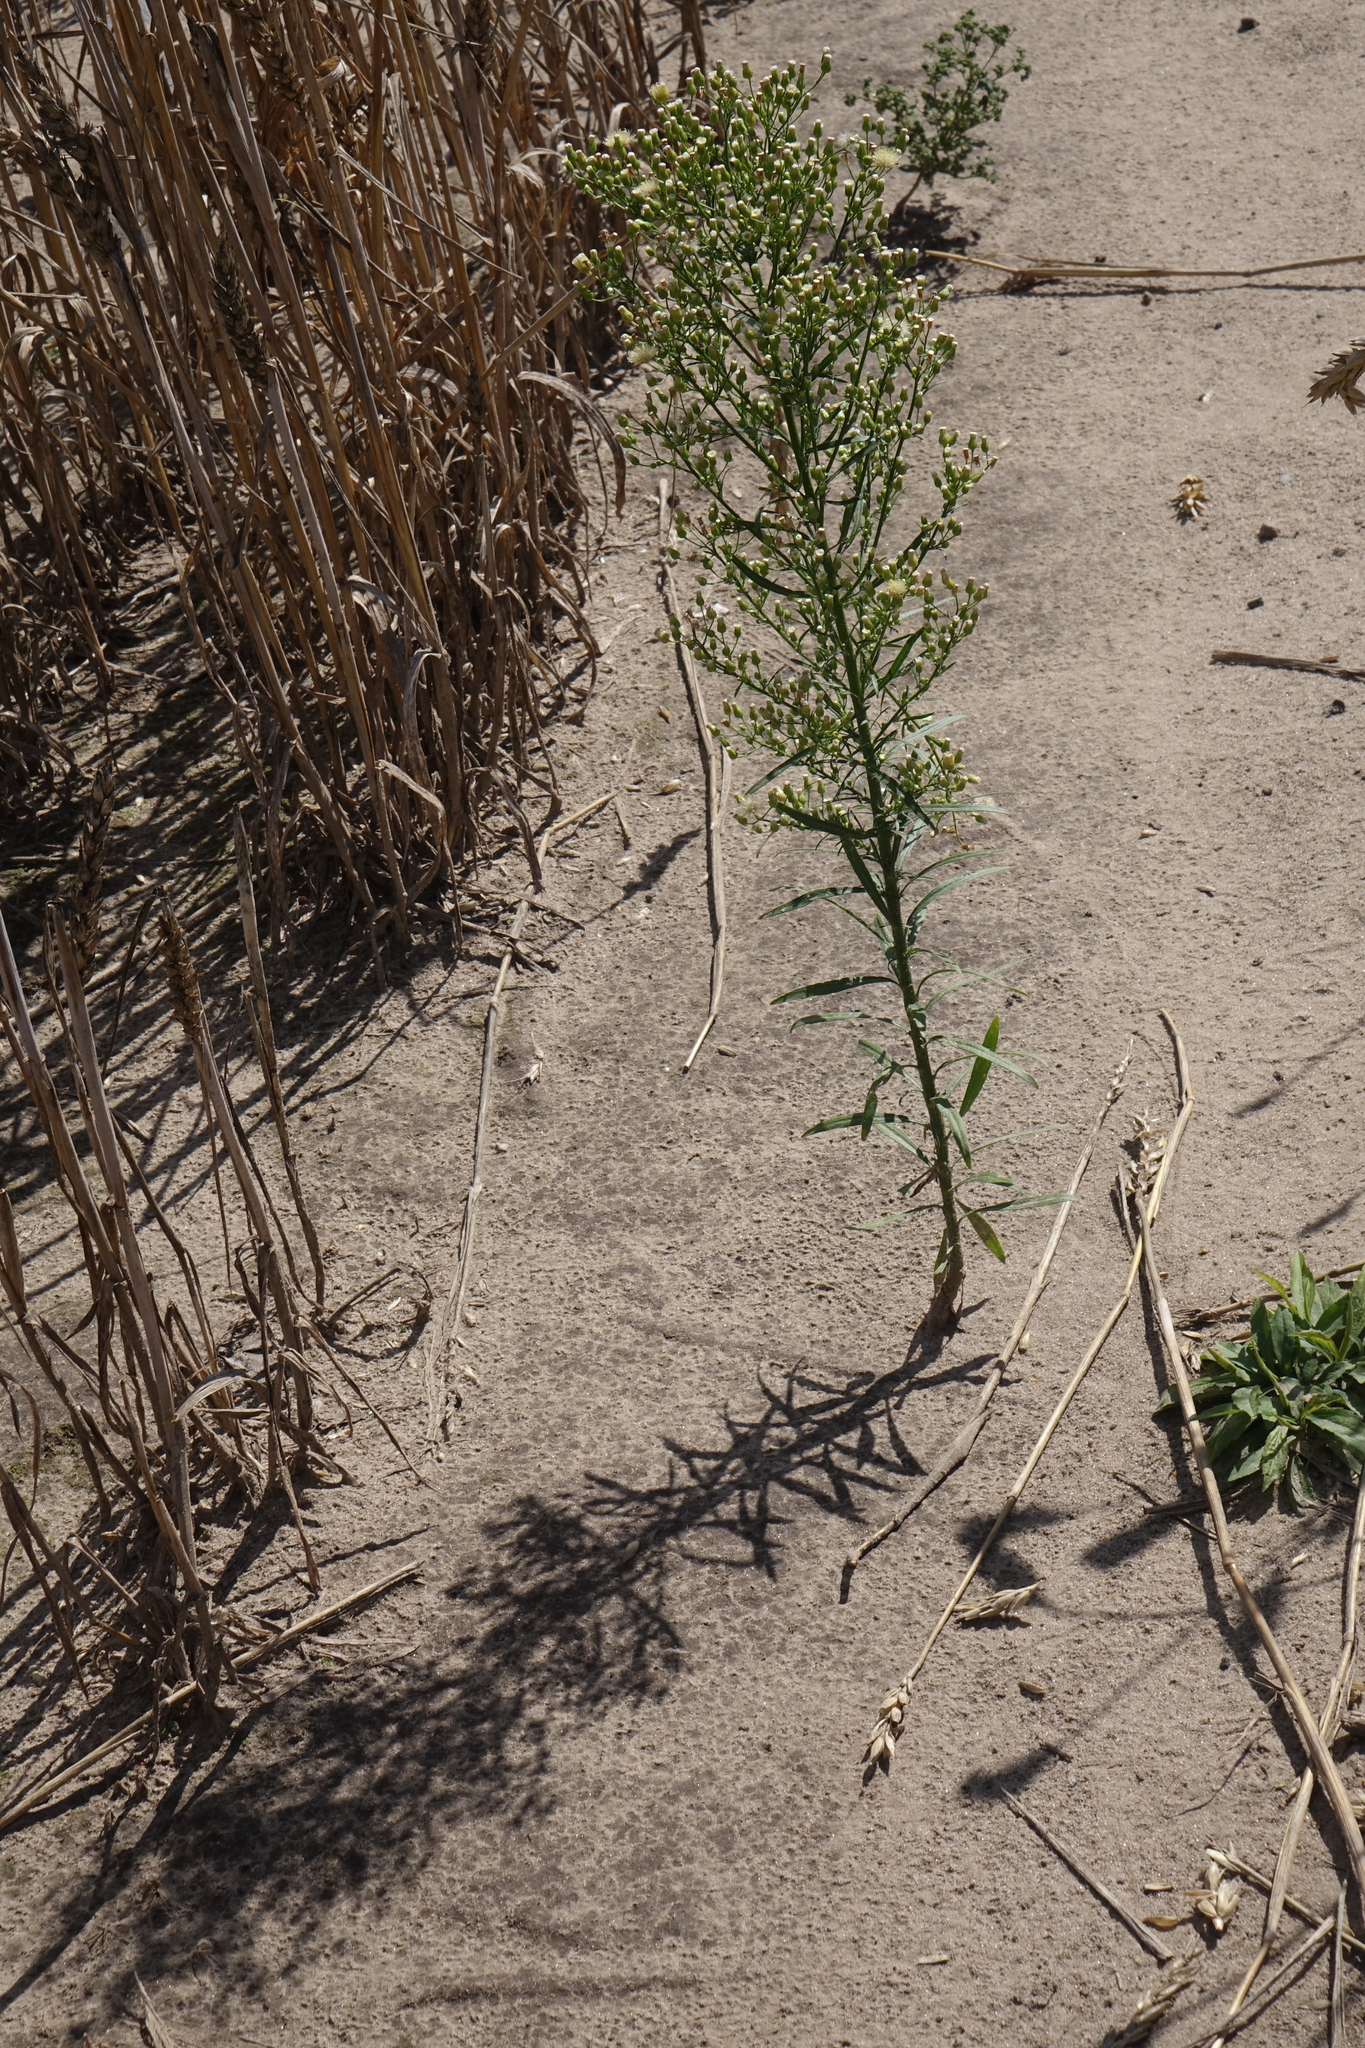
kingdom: Plantae
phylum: Tracheophyta
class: Magnoliopsida
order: Asterales
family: Asteraceae
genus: Erigeron
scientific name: Erigeron canadensis
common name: Canadian fleabane
